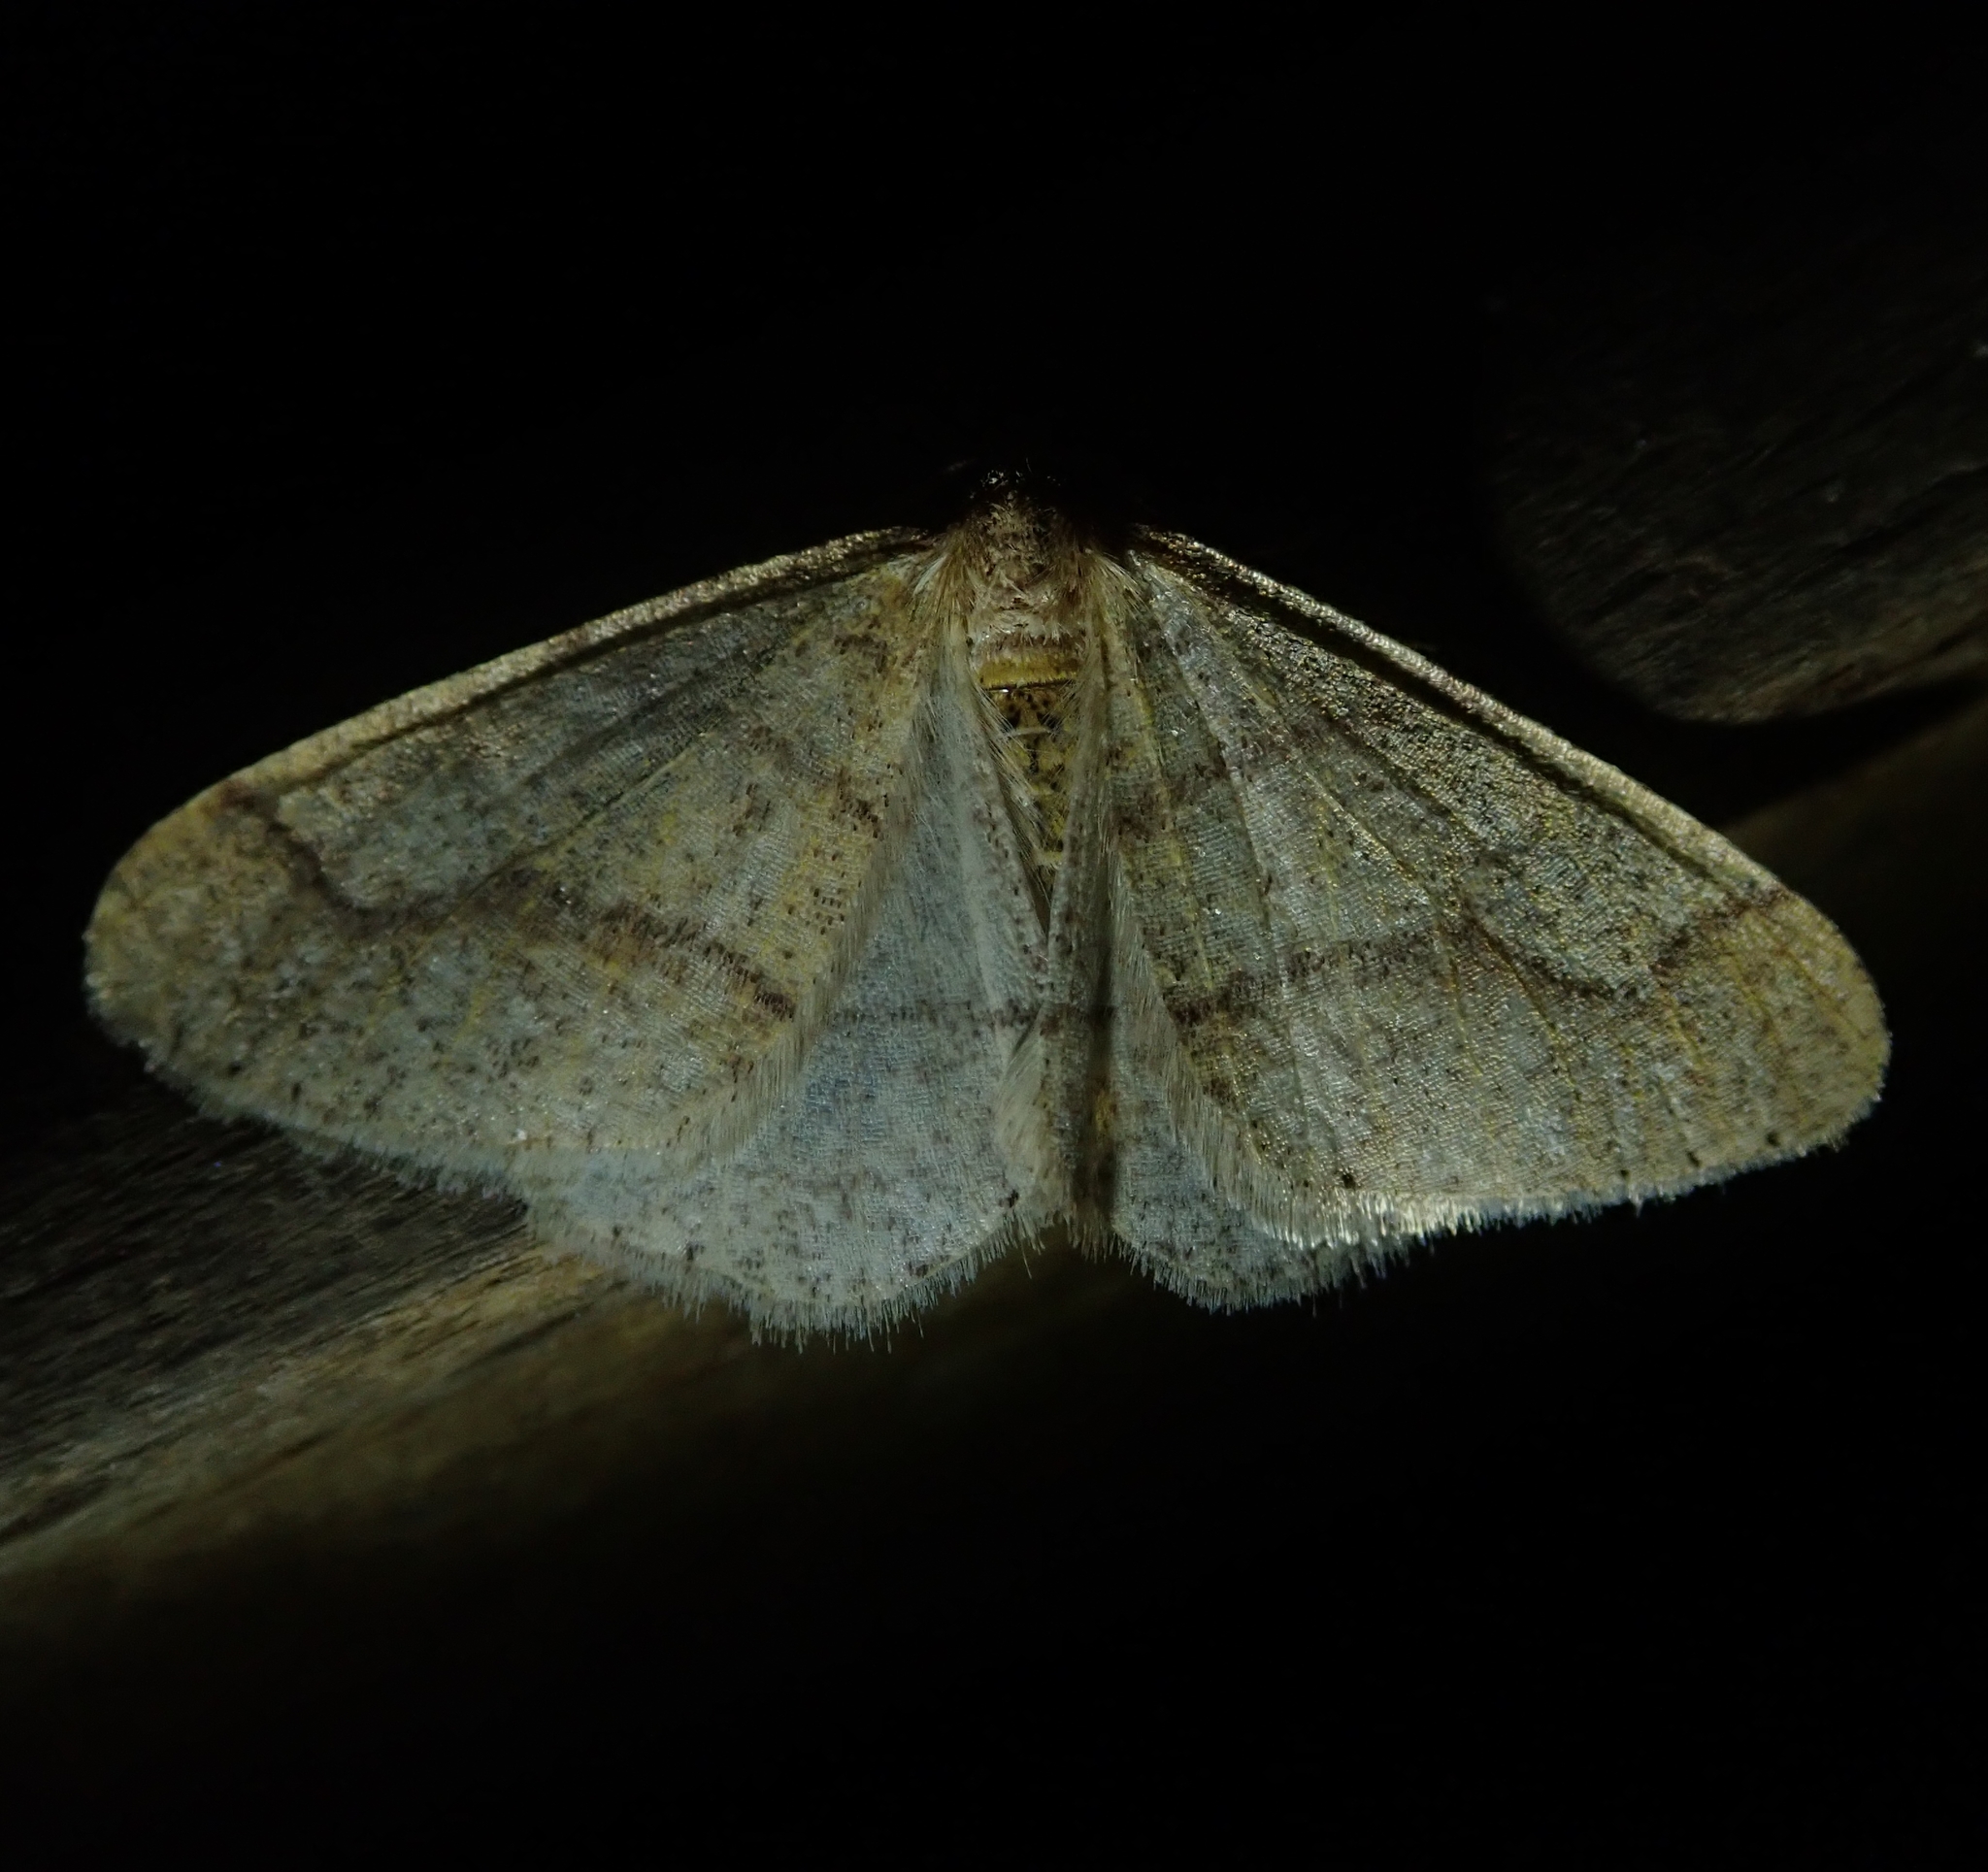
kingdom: Animalia
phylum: Arthropoda
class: Insecta
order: Lepidoptera
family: Geometridae
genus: Agriopis
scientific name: Agriopis marginaria
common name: Dotted border
